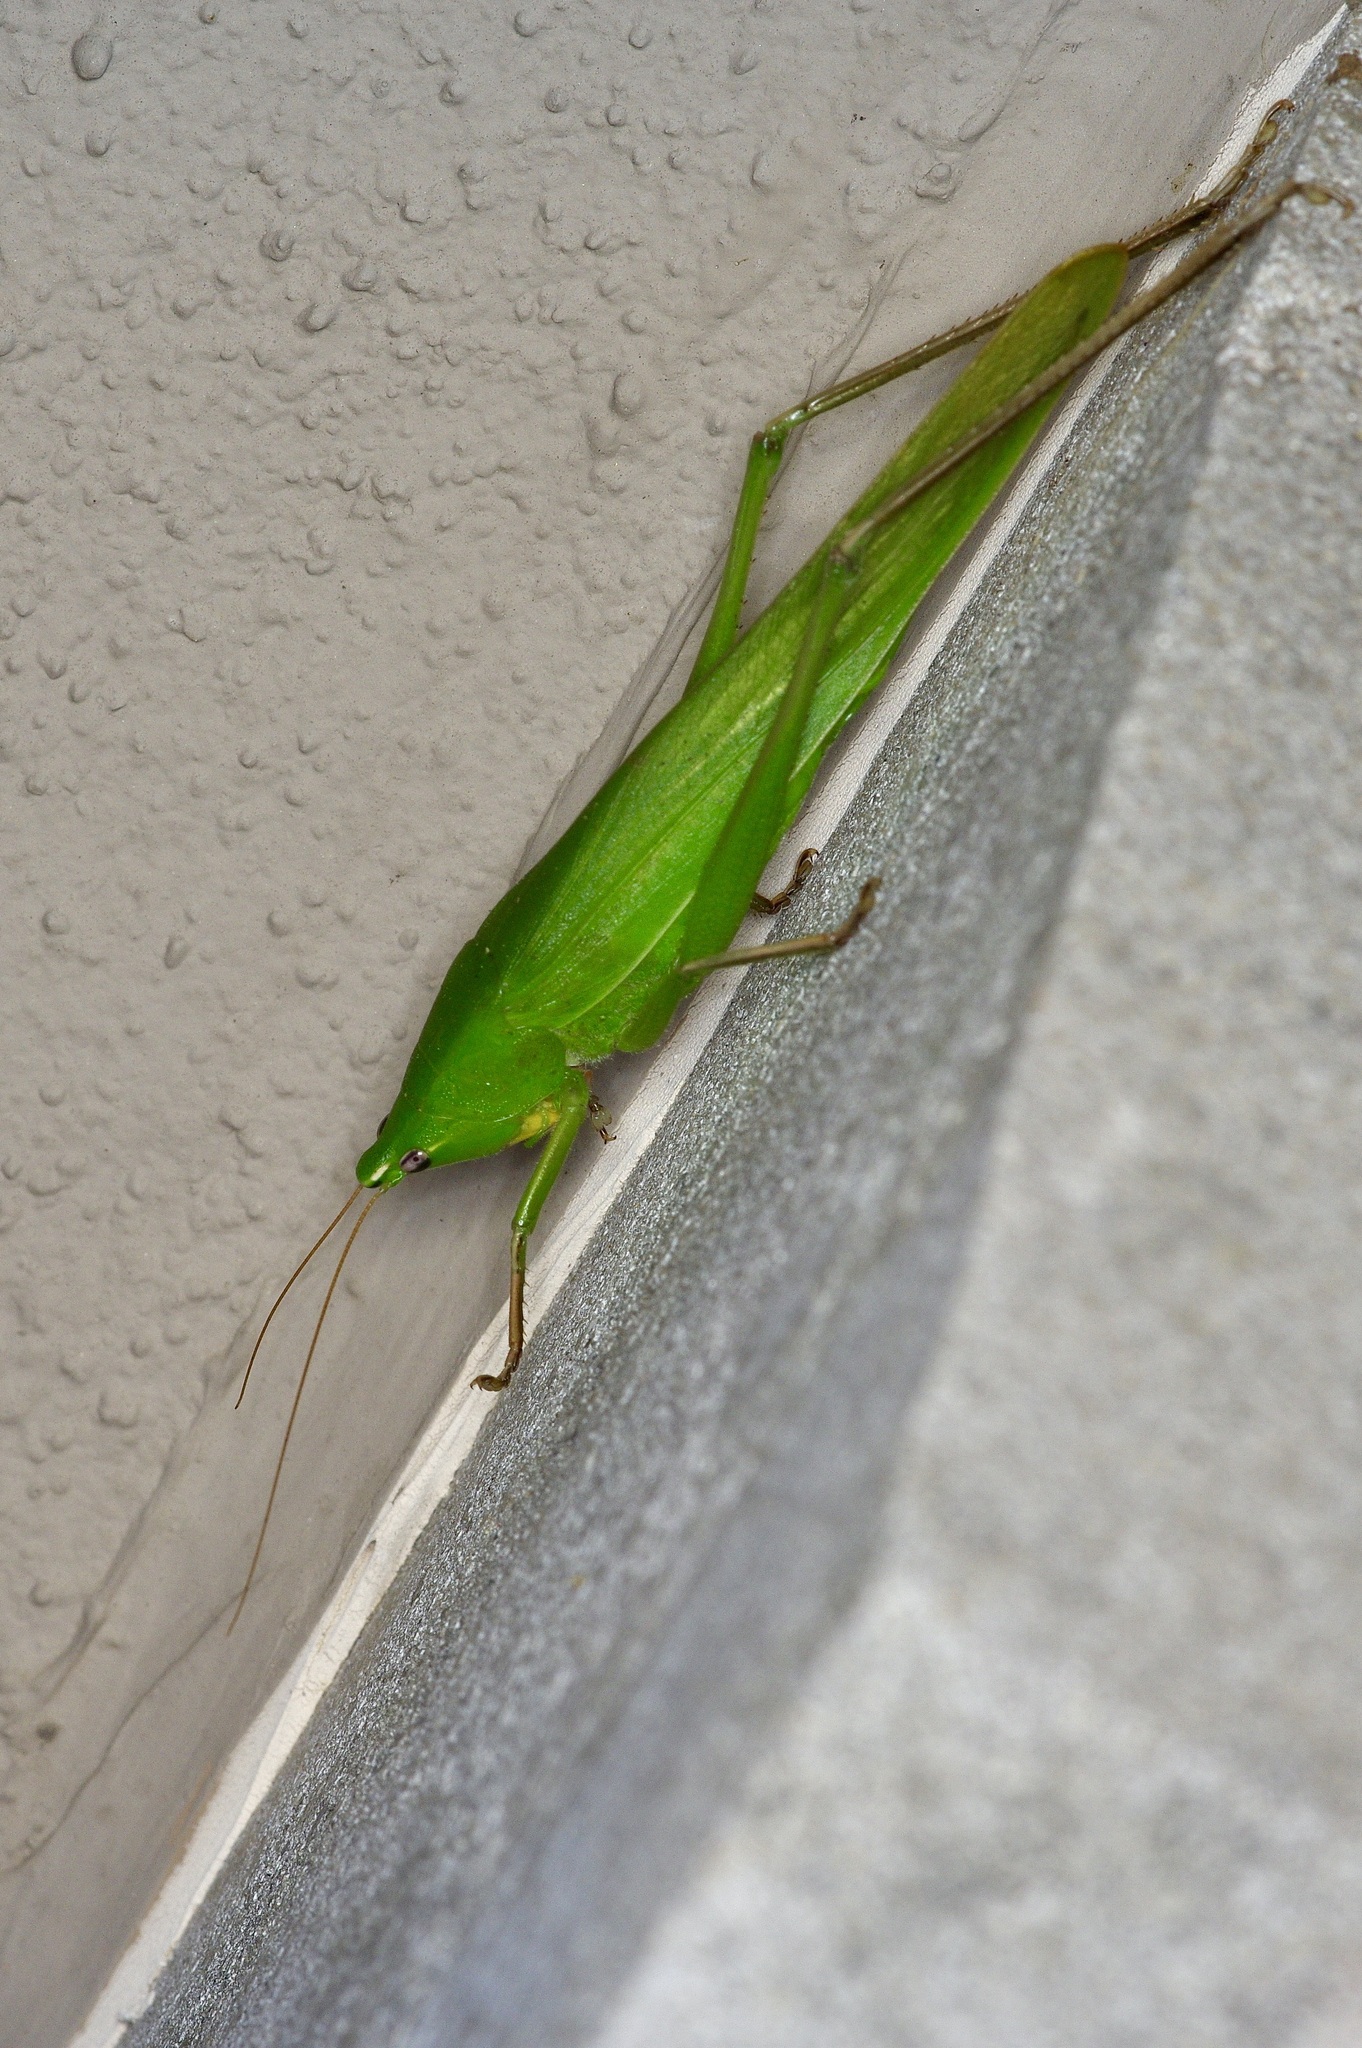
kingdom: Animalia
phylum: Arthropoda
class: Insecta
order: Orthoptera
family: Tettigoniidae
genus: Neoconocephalus
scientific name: Neoconocephalus triops
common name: Broad-tipped conehead
